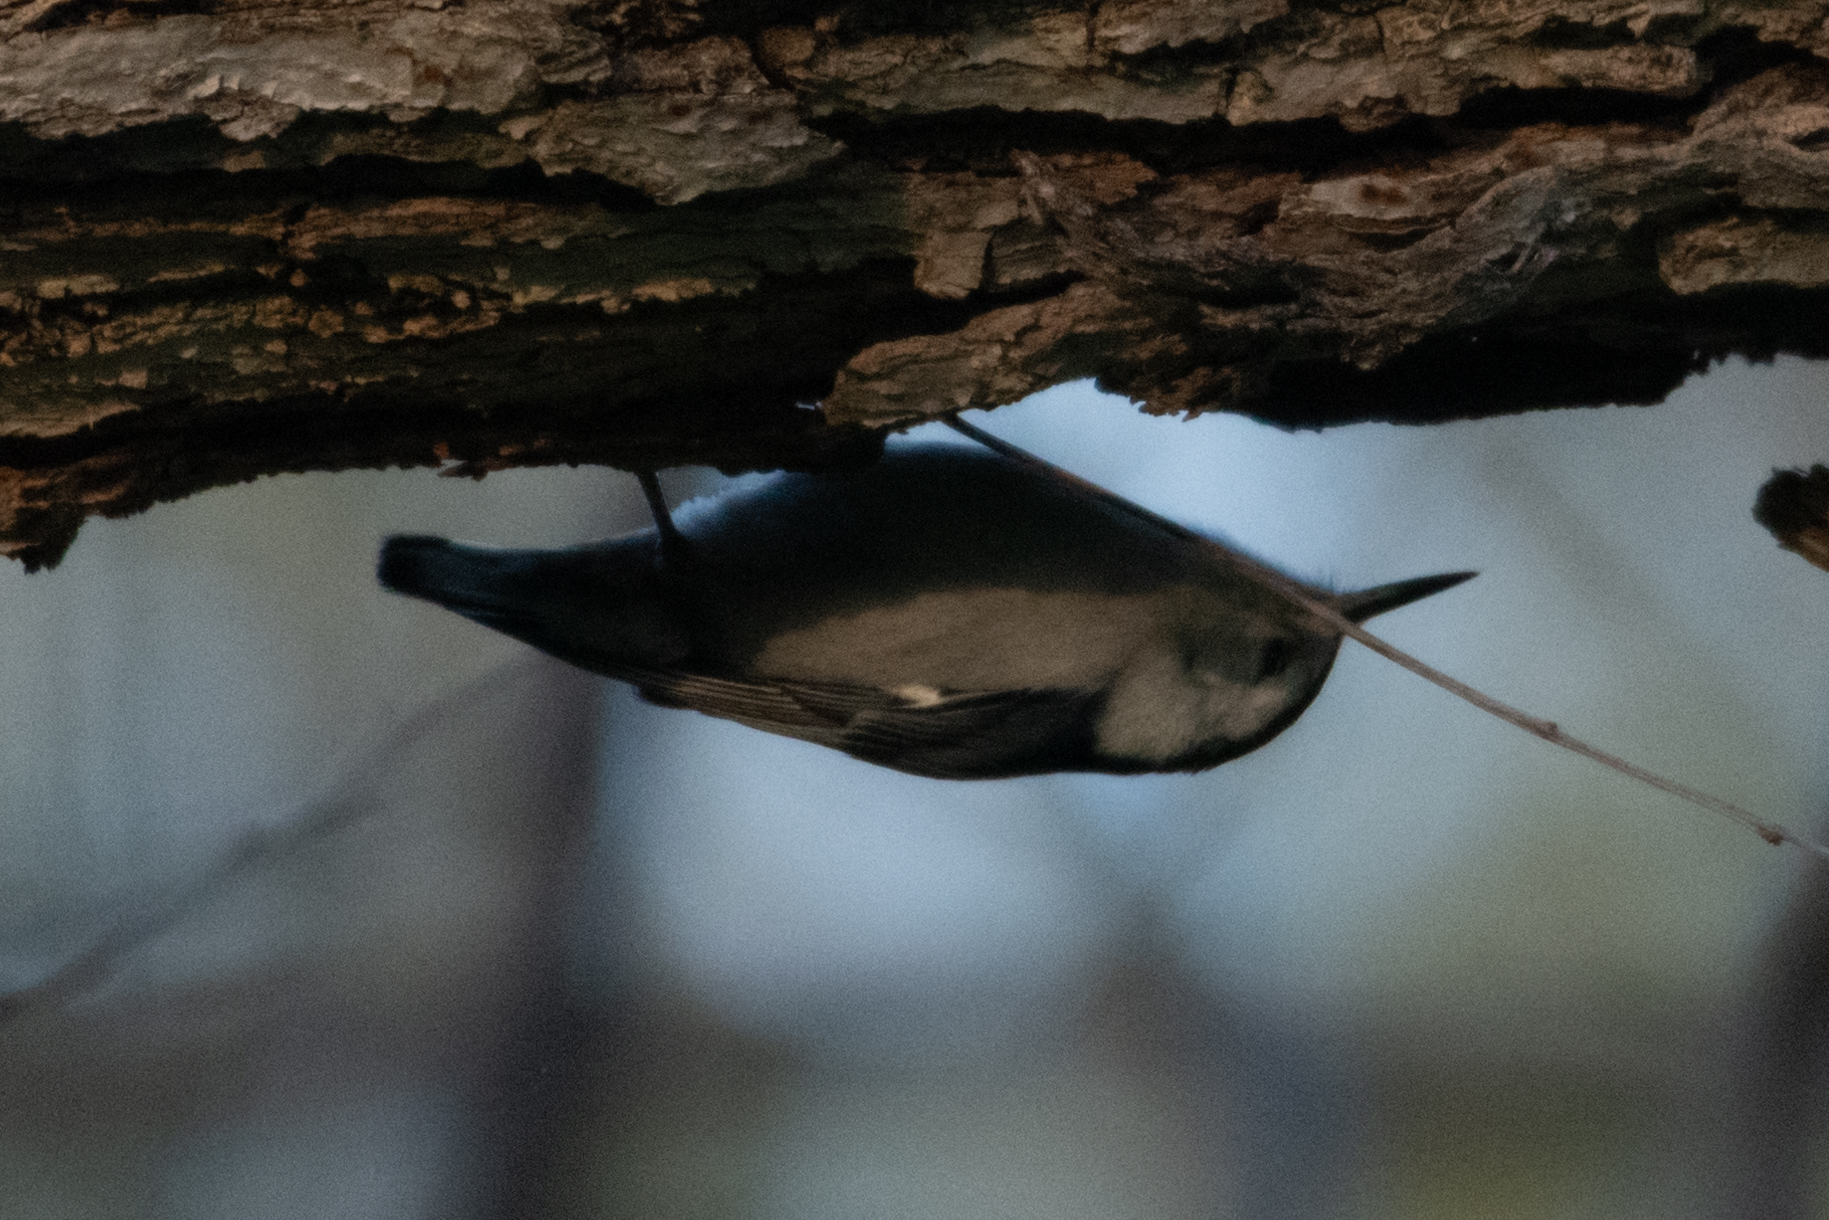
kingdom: Animalia
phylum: Chordata
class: Aves
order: Passeriformes
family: Sittidae
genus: Sitta
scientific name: Sitta carolinensis
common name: White-breasted nuthatch
